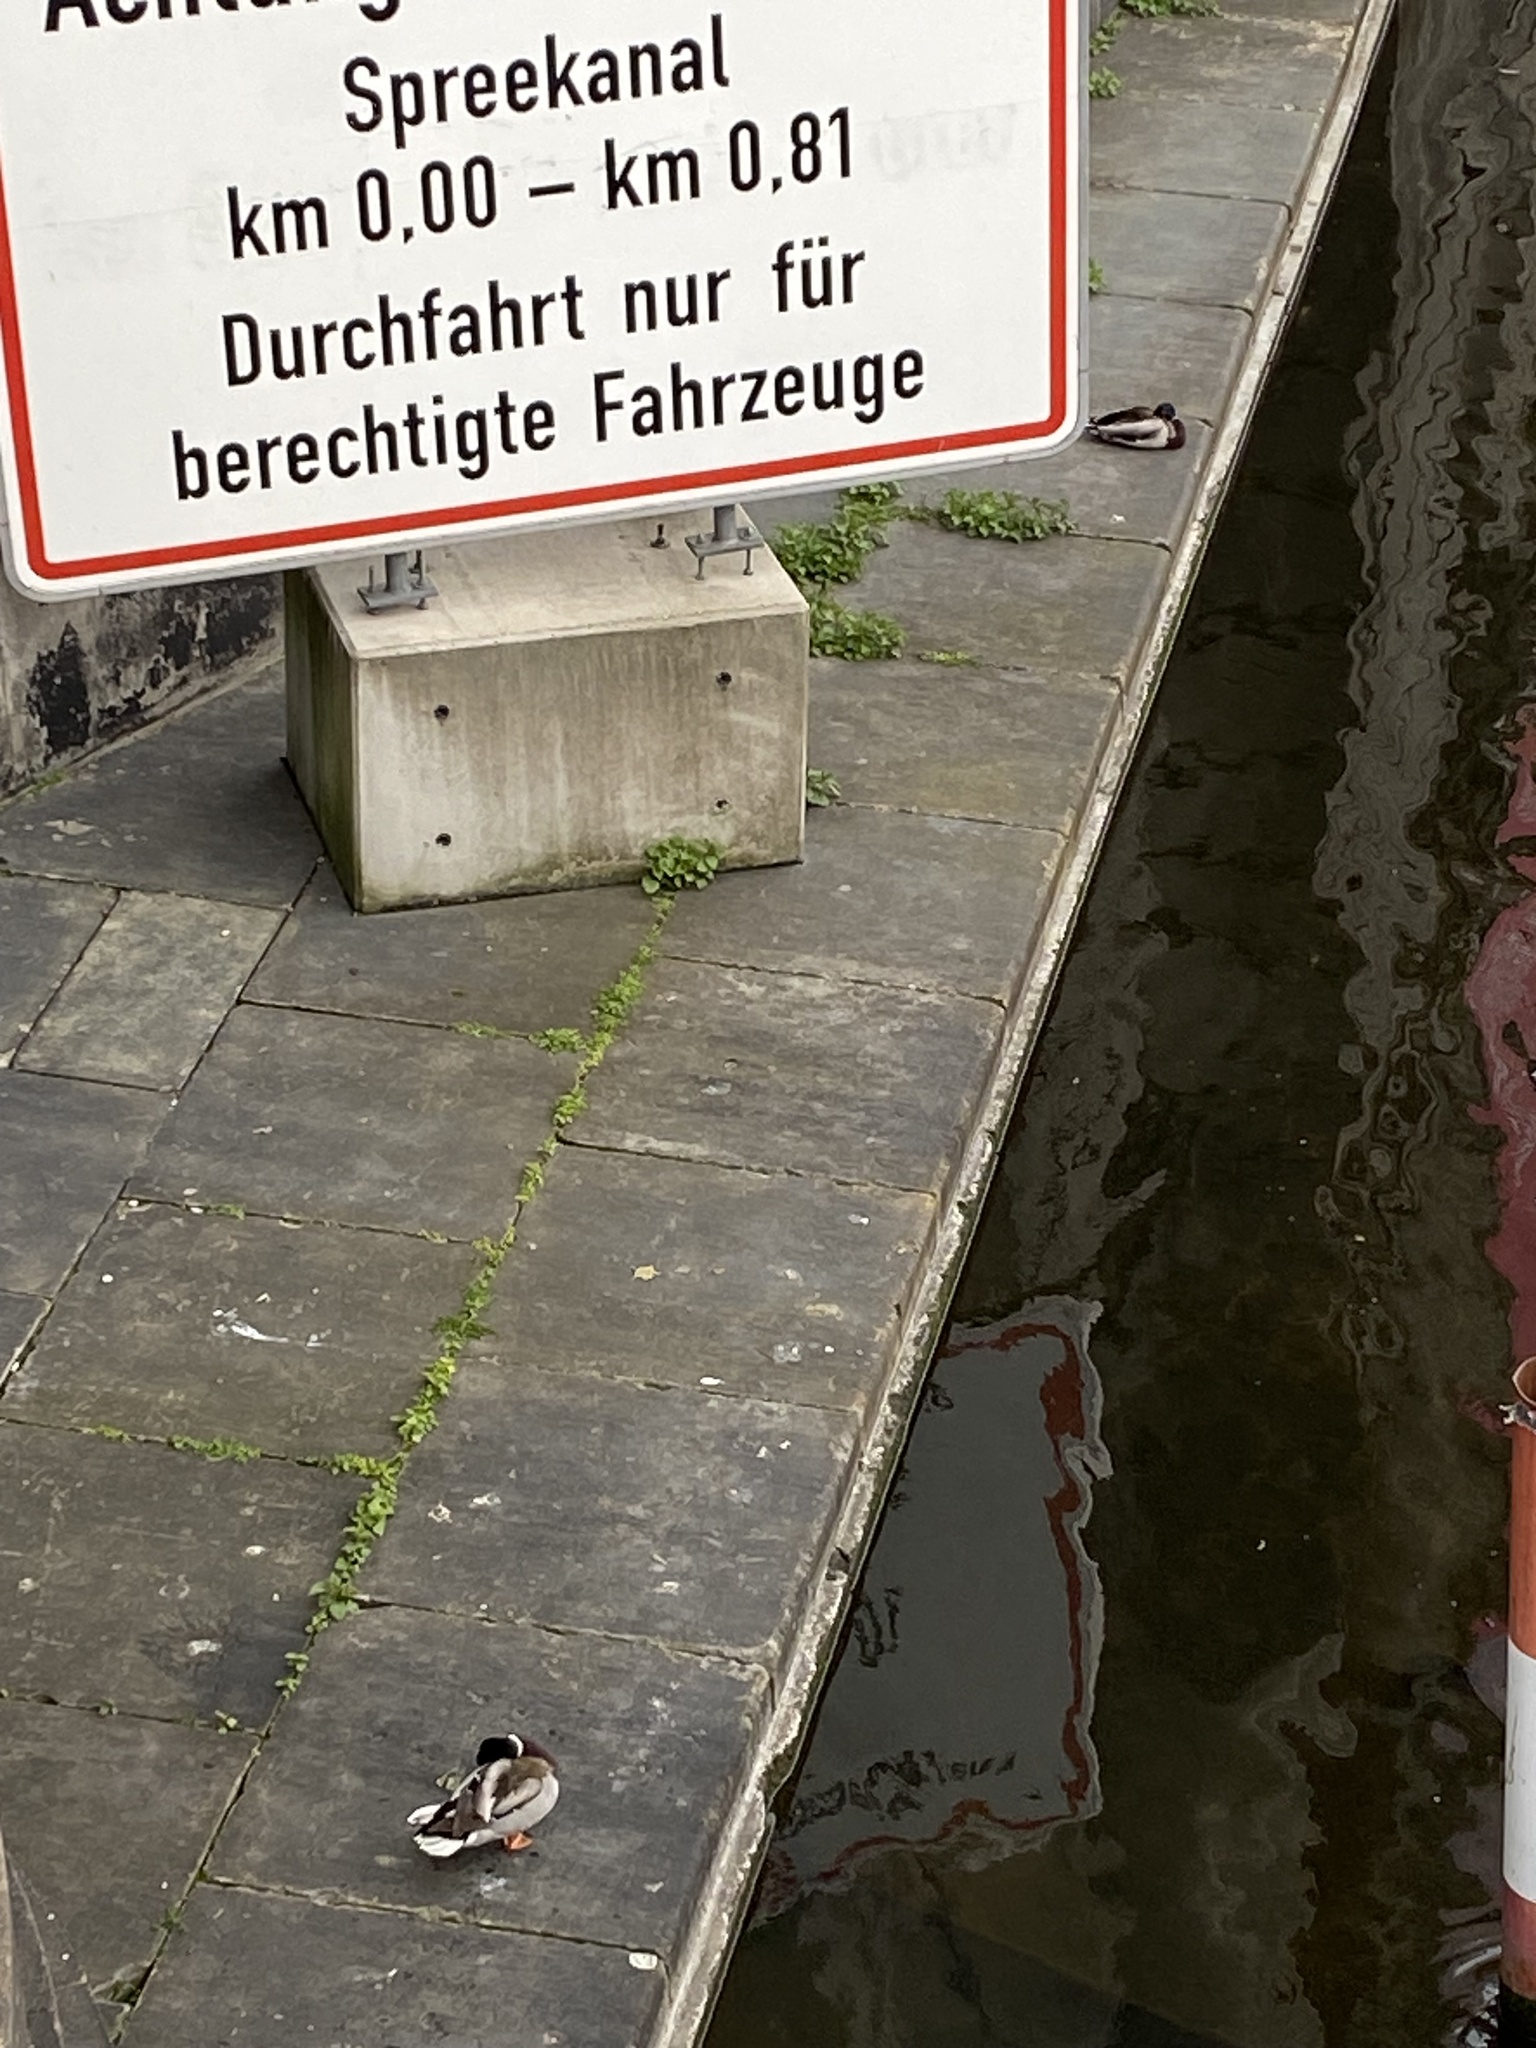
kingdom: Animalia
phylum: Chordata
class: Aves
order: Anseriformes
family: Anatidae
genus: Anas
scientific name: Anas platyrhynchos
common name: Mallard
